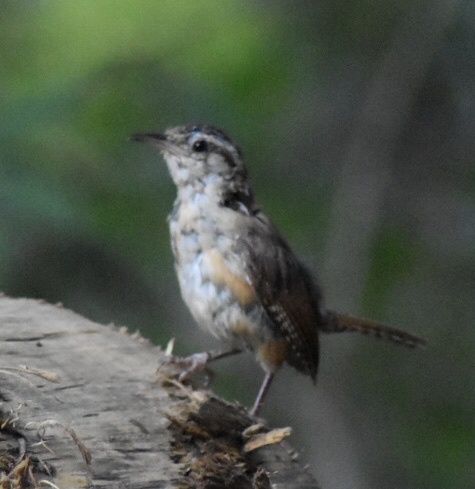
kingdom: Animalia
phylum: Chordata
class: Aves
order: Passeriformes
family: Troglodytidae
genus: Thryothorus
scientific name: Thryothorus ludovicianus
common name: Carolina wren
